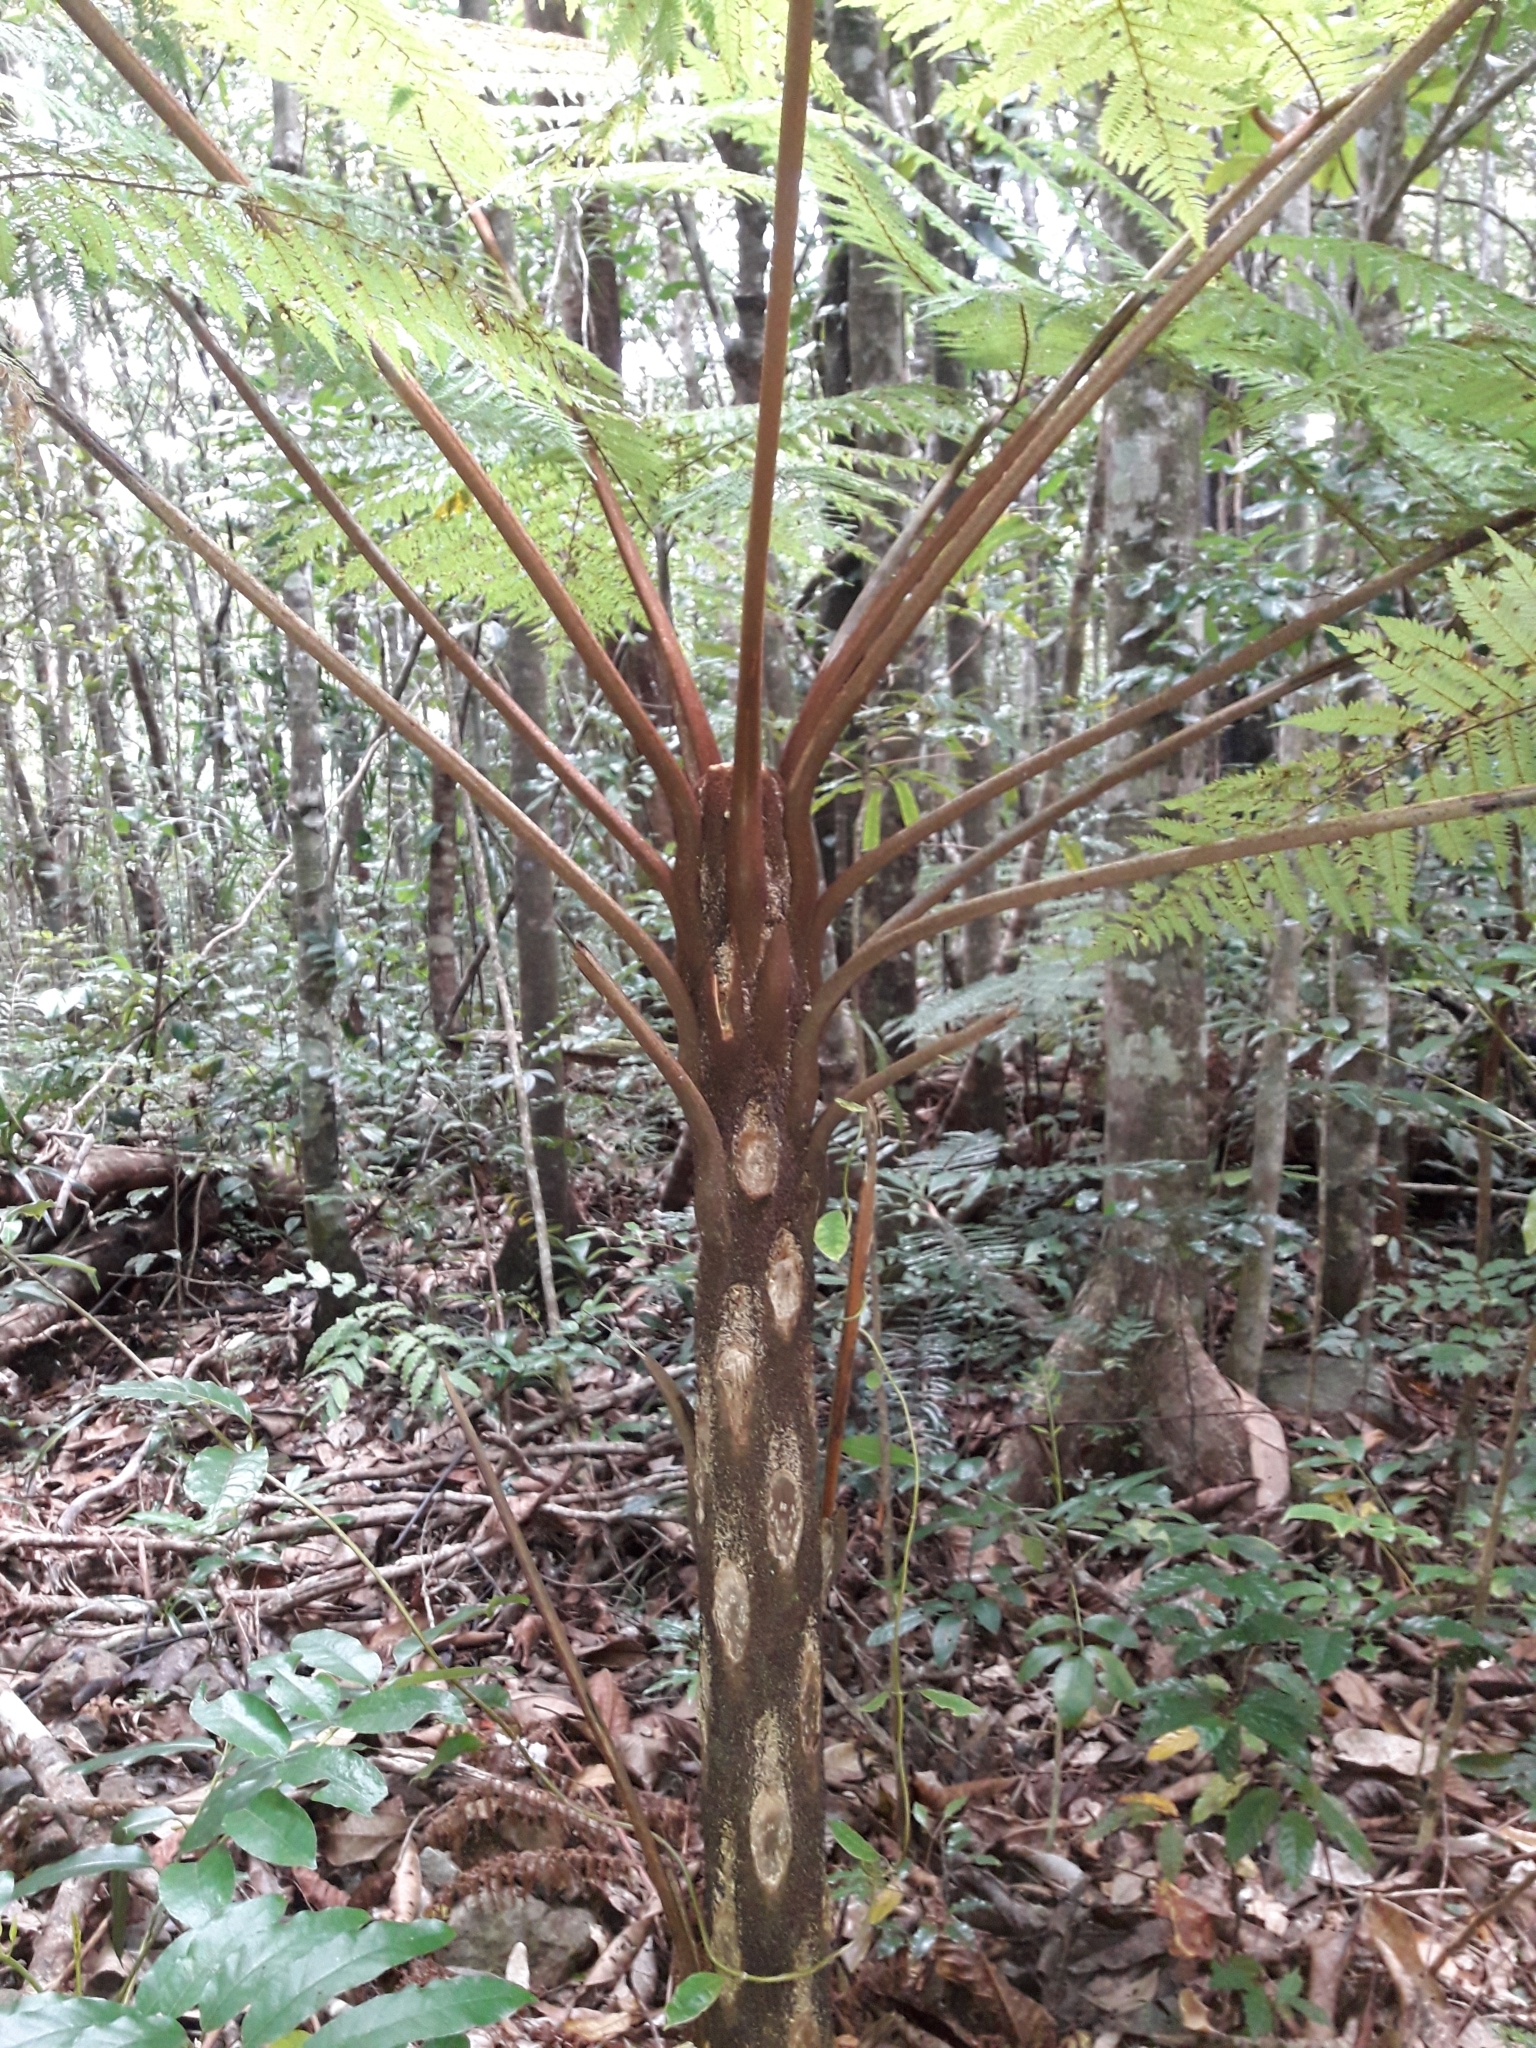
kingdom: Plantae
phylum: Tracheophyta
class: Polypodiopsida
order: Cyatheales
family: Cyatheaceae
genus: Sphaeropteris
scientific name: Sphaeropteris novae-caledoniae
